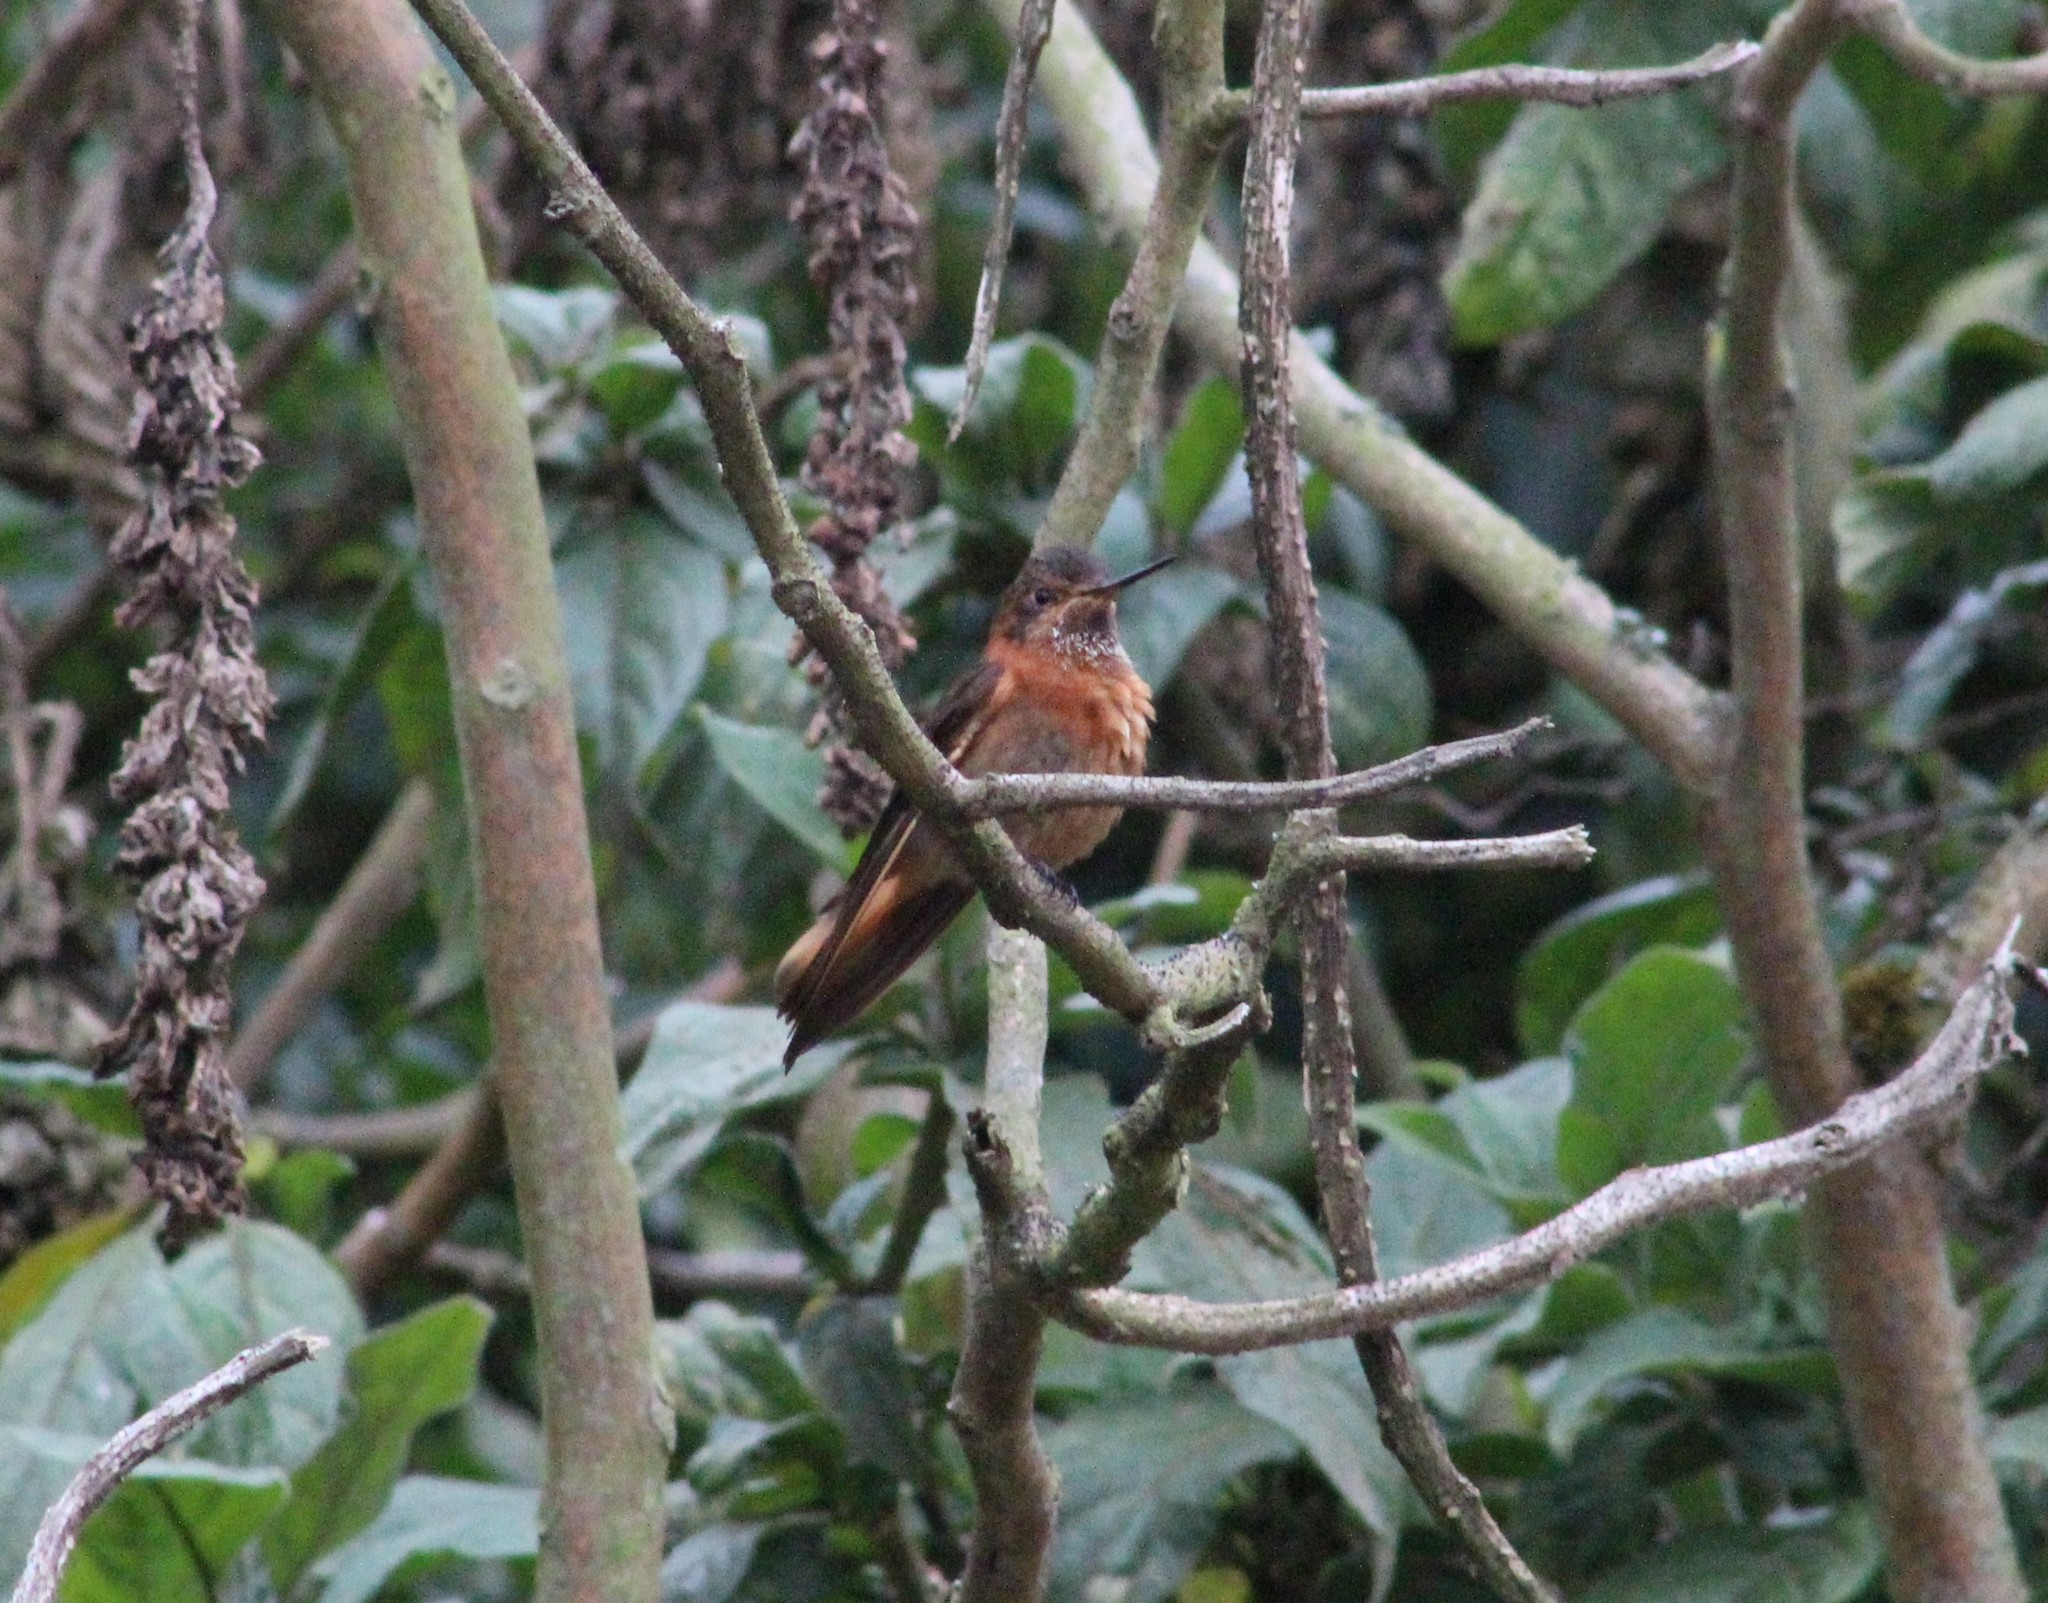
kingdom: Animalia
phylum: Chordata
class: Aves
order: Apodiformes
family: Trochilidae
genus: Aglaeactis
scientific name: Aglaeactis cupripennis
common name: Shining sunbeam
